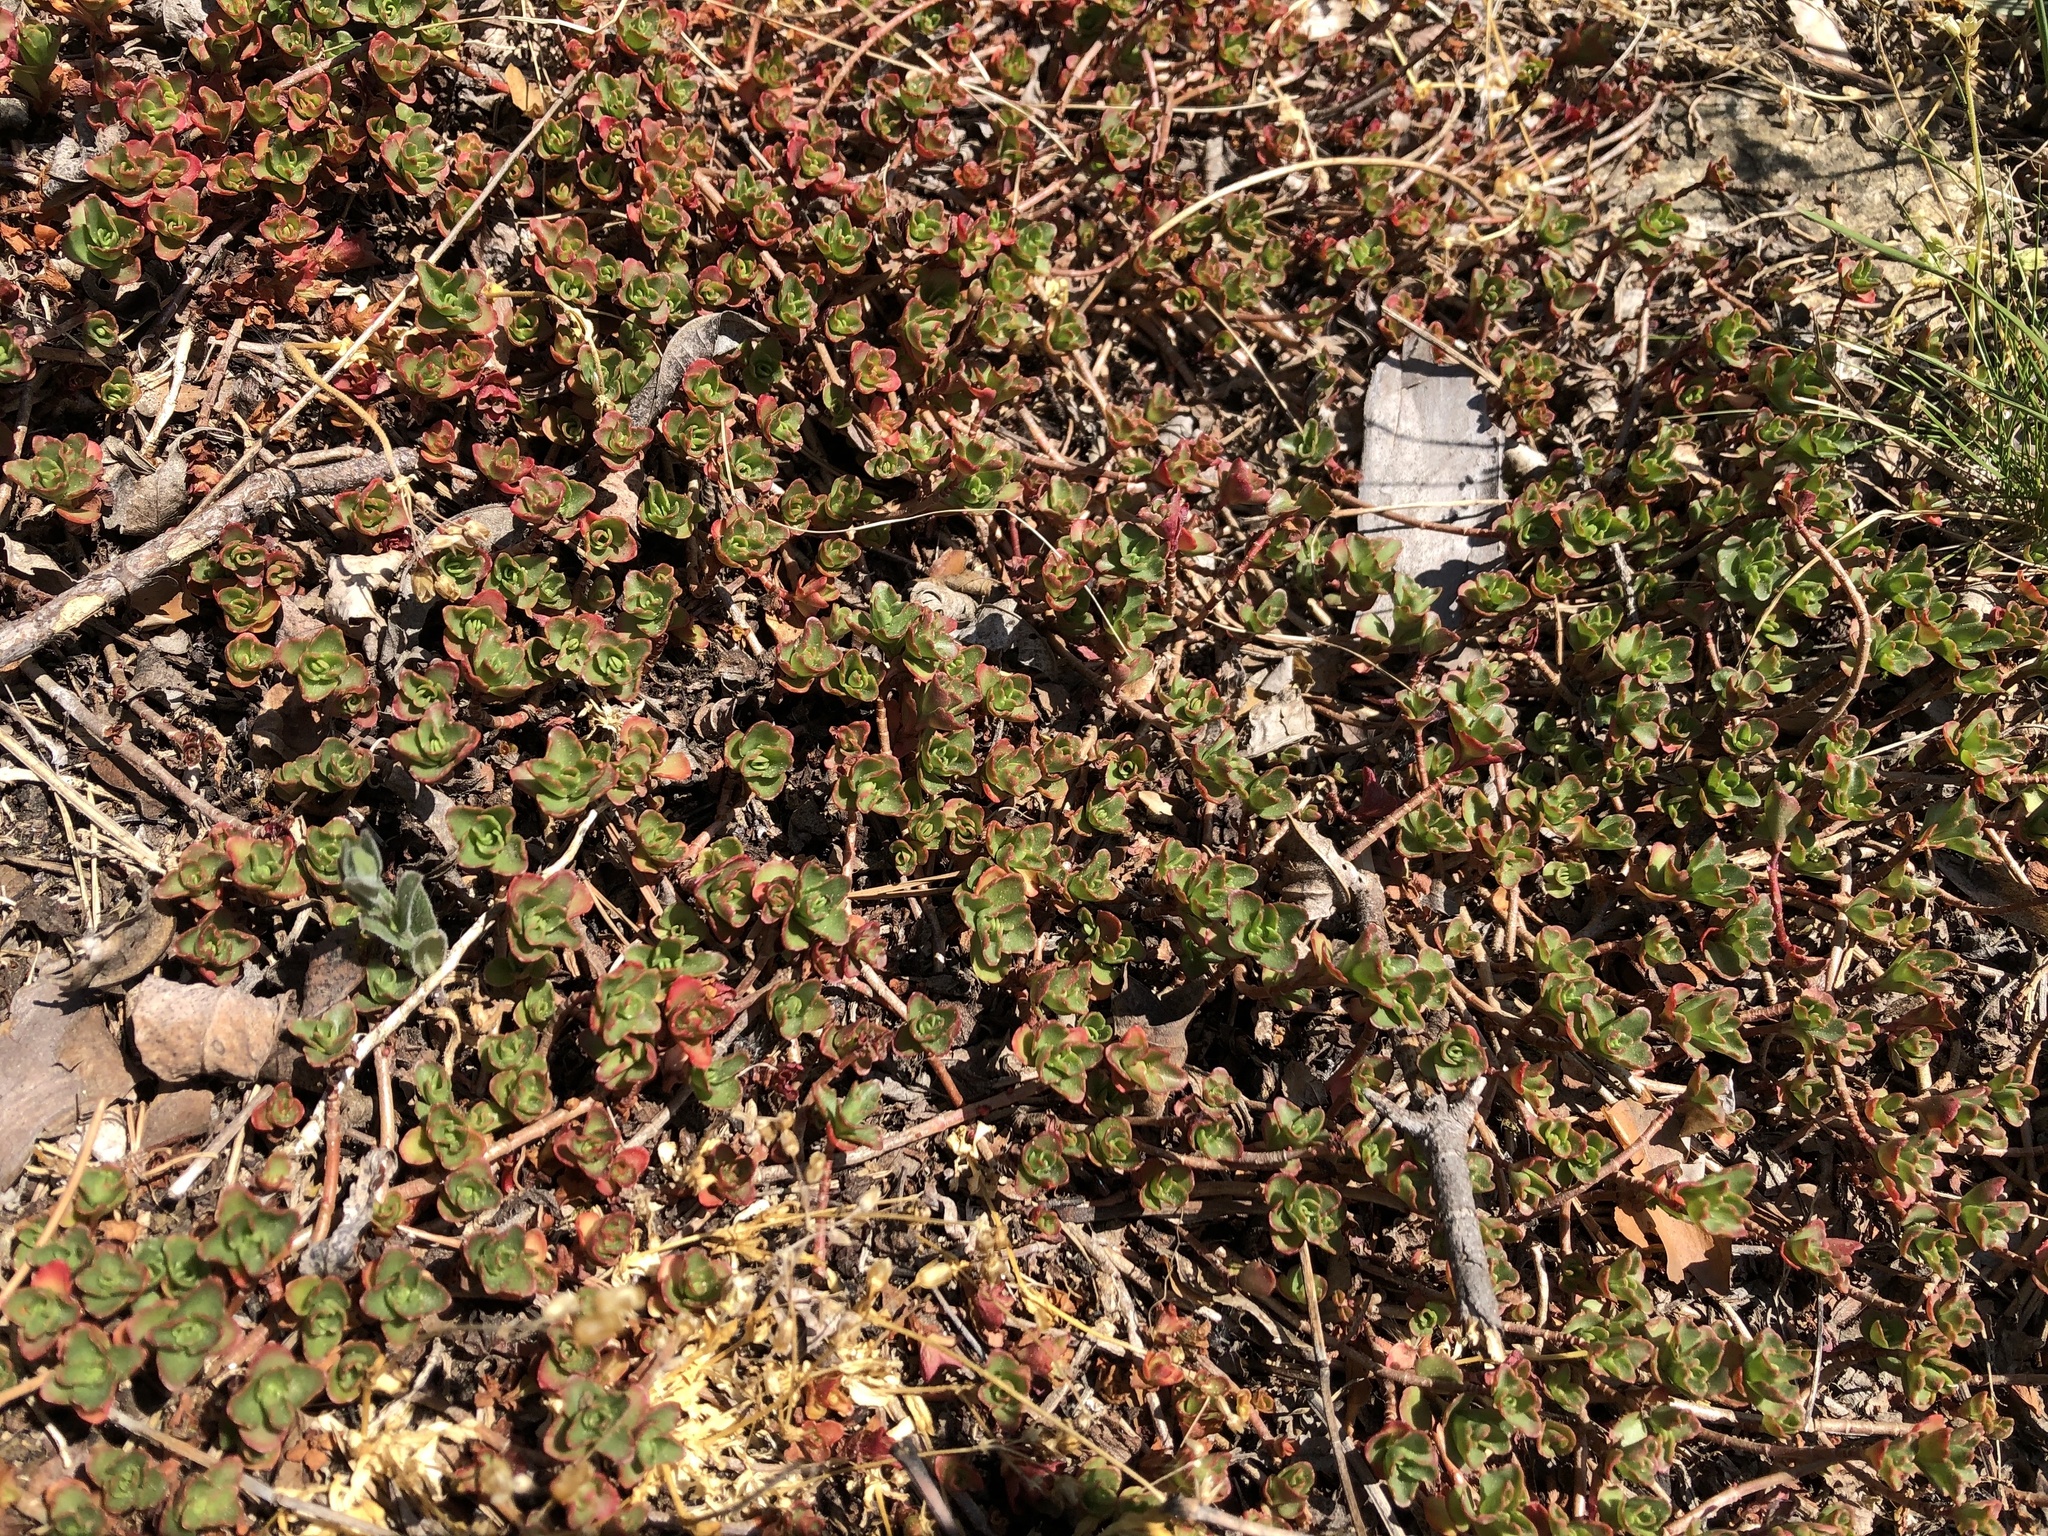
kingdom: Plantae
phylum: Tracheophyta
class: Magnoliopsida
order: Saxifragales
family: Crassulaceae
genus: Phedimus
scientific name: Phedimus spurius
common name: Caucasian stonecrop
